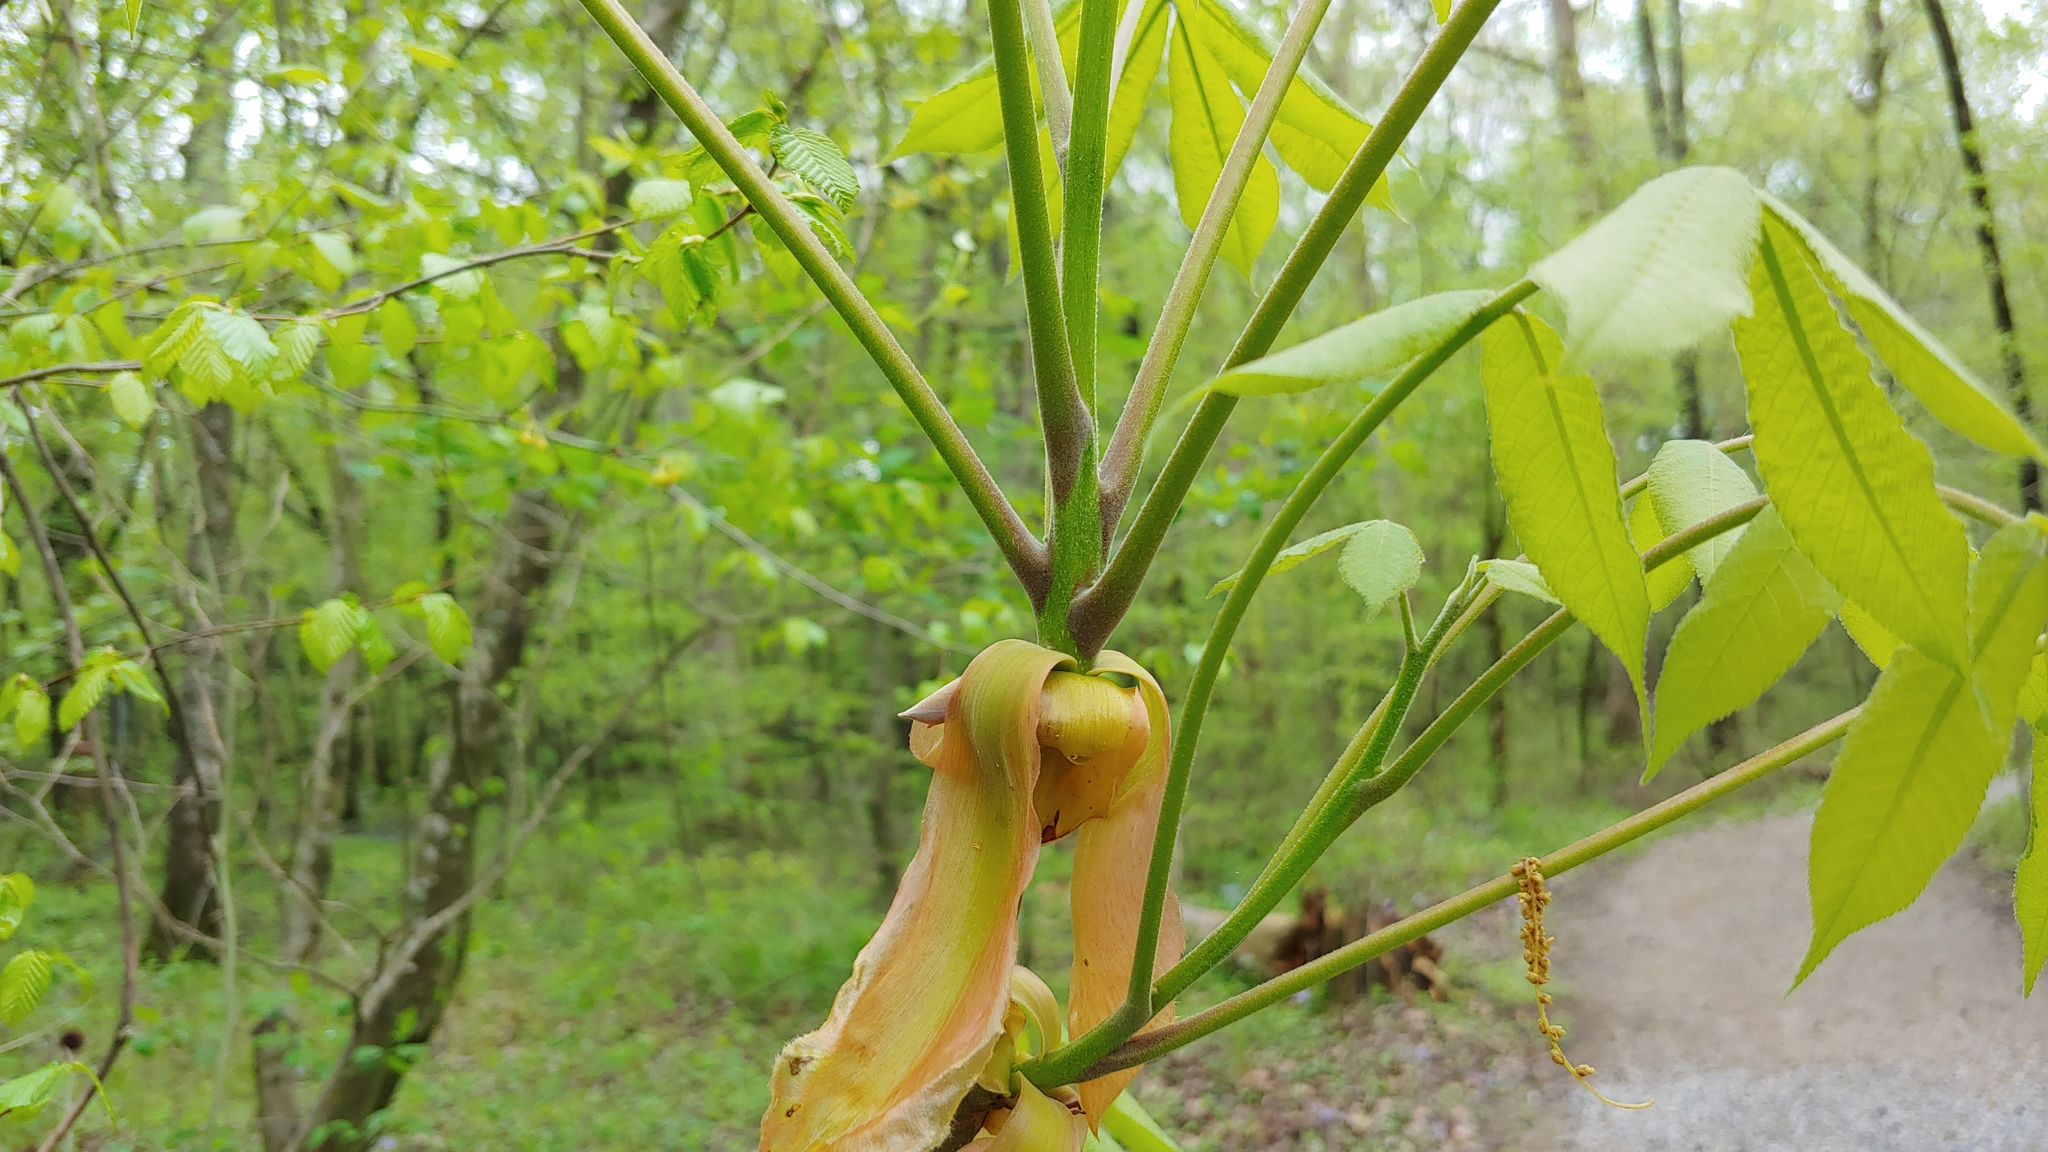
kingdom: Plantae
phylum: Tracheophyta
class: Magnoliopsida
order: Fagales
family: Juglandaceae
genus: Carya
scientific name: Carya cordiformis
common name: Bitternut hickory
